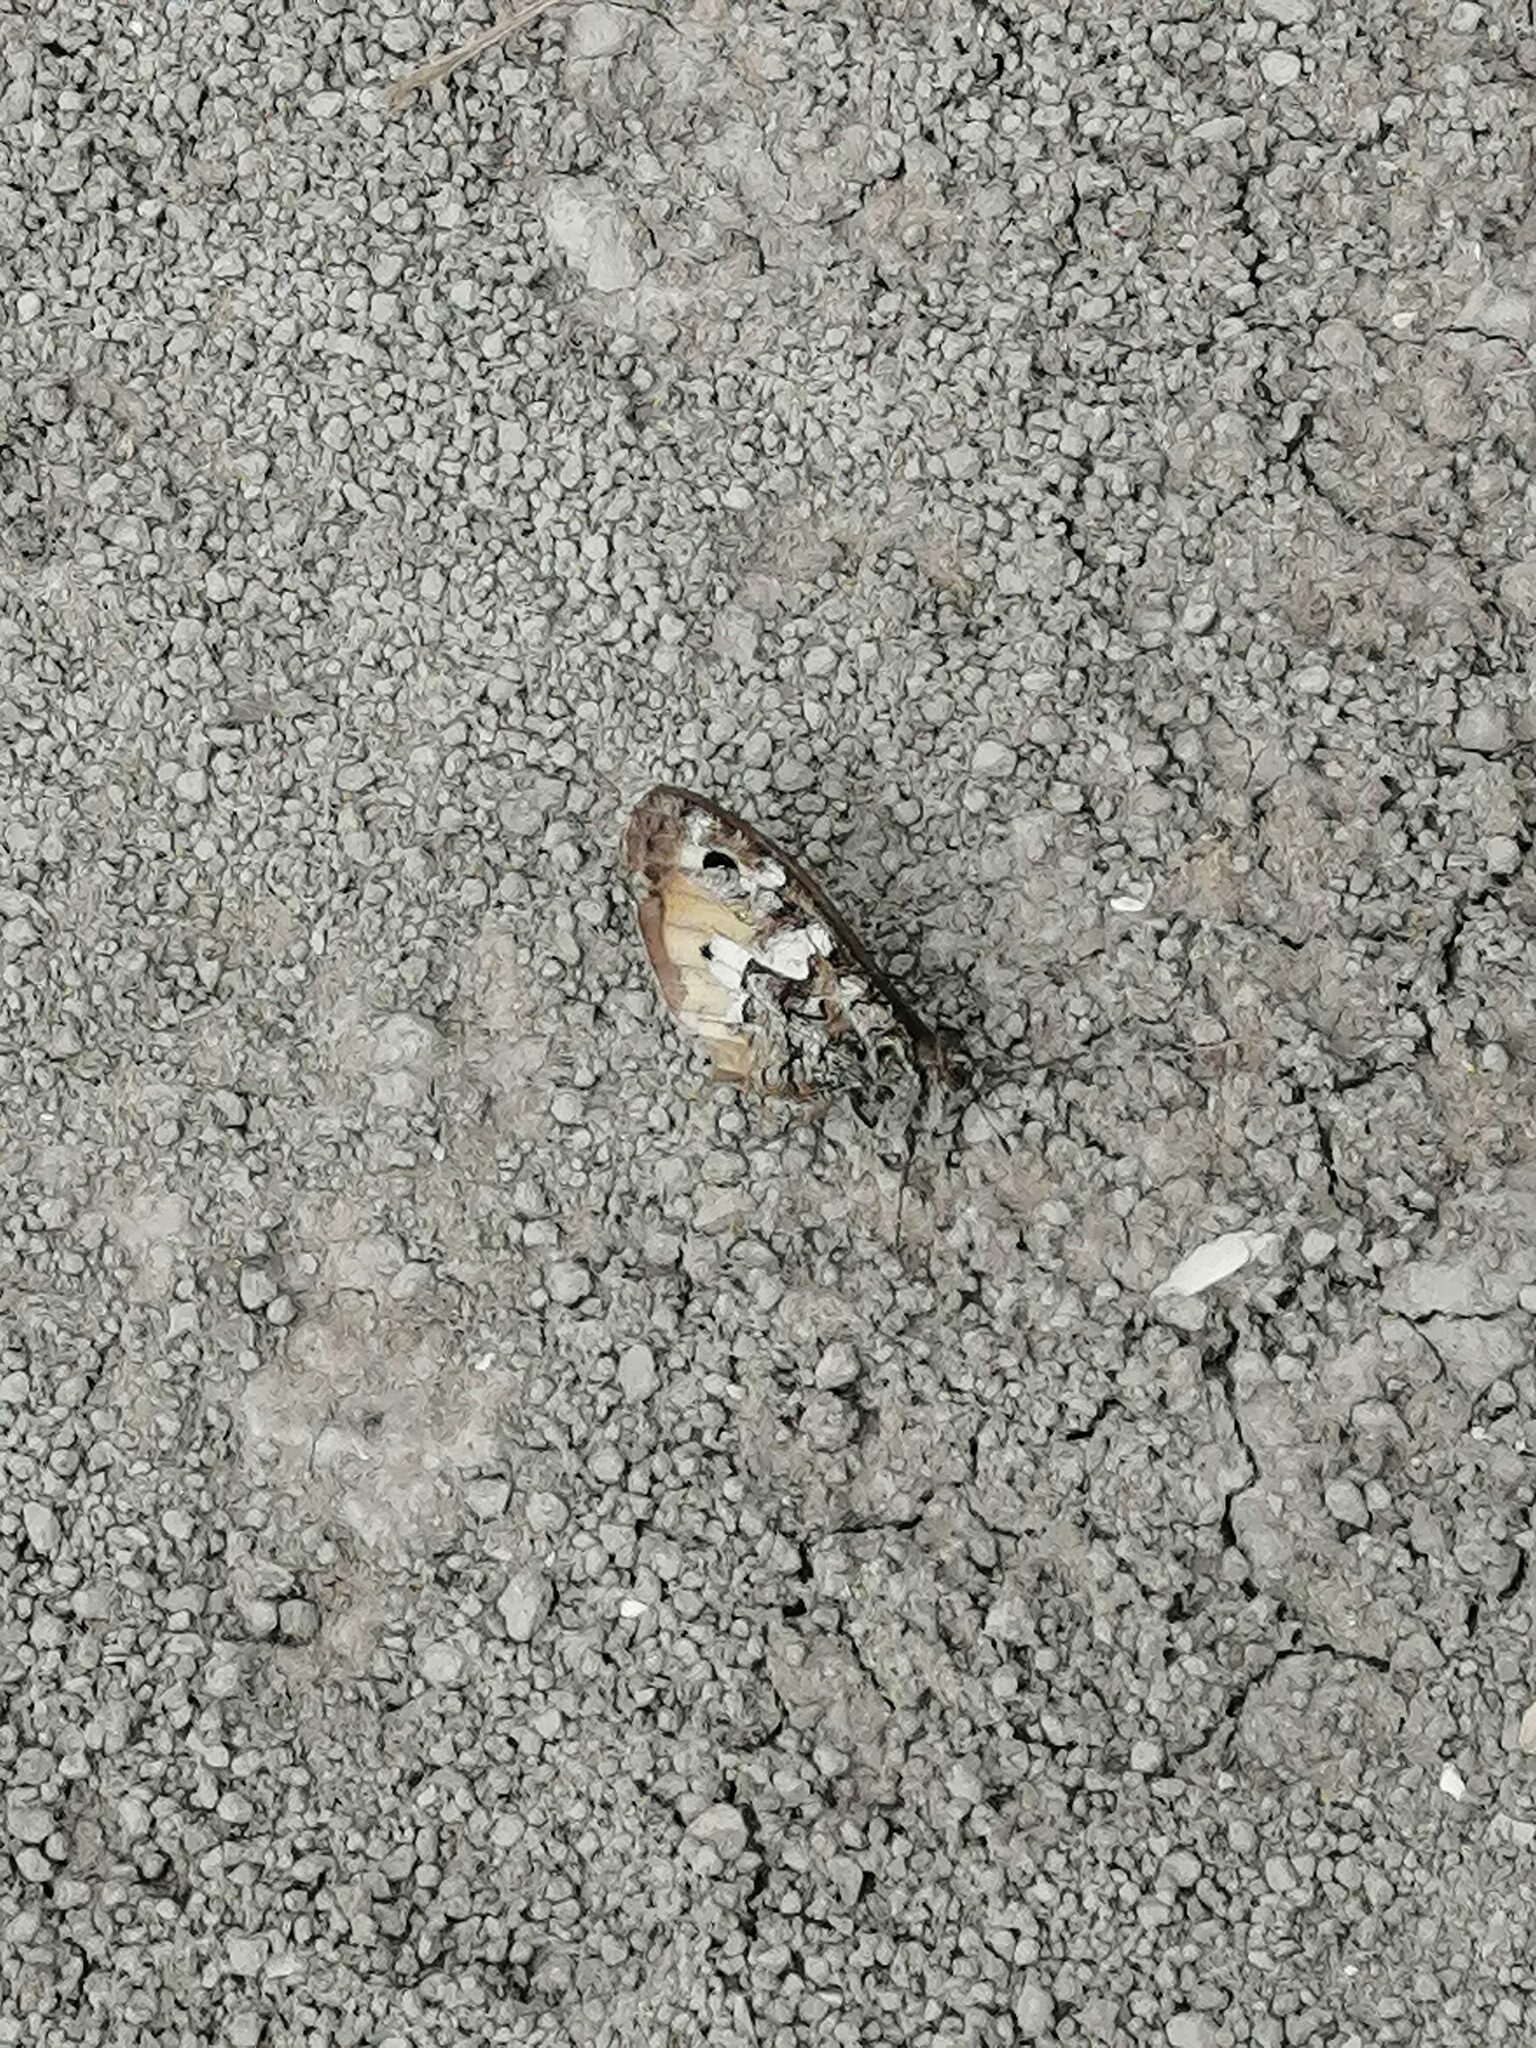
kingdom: Animalia
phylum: Arthropoda
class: Insecta
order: Lepidoptera
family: Nymphalidae
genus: Hipparchia
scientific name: Hipparchia pellucida
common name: Lesbos grayling
